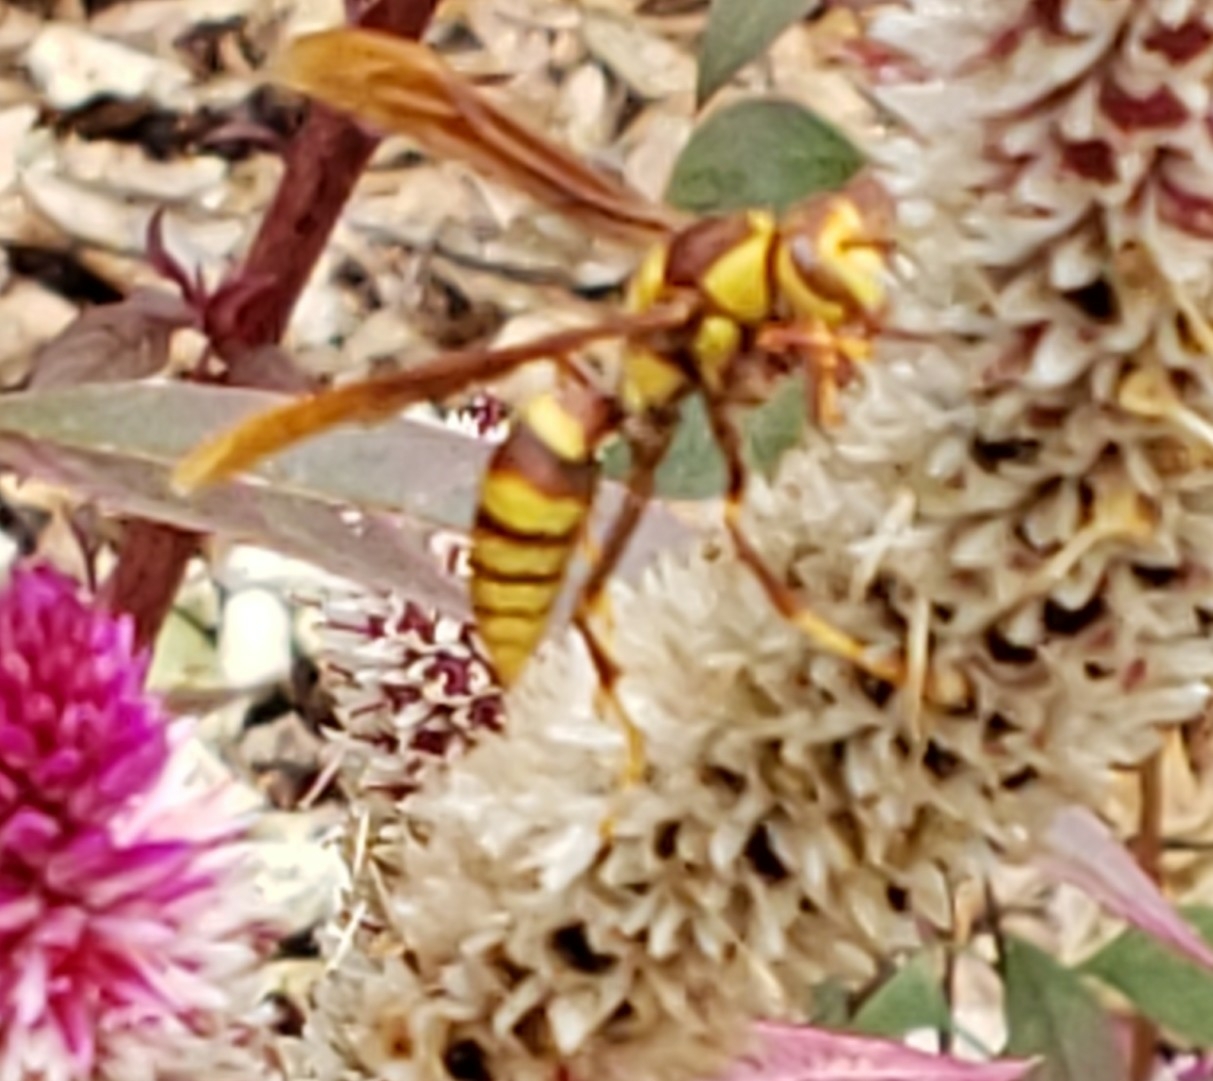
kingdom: Animalia
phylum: Arthropoda
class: Insecta
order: Hymenoptera
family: Eumenidae
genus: Polistes
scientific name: Polistes major
